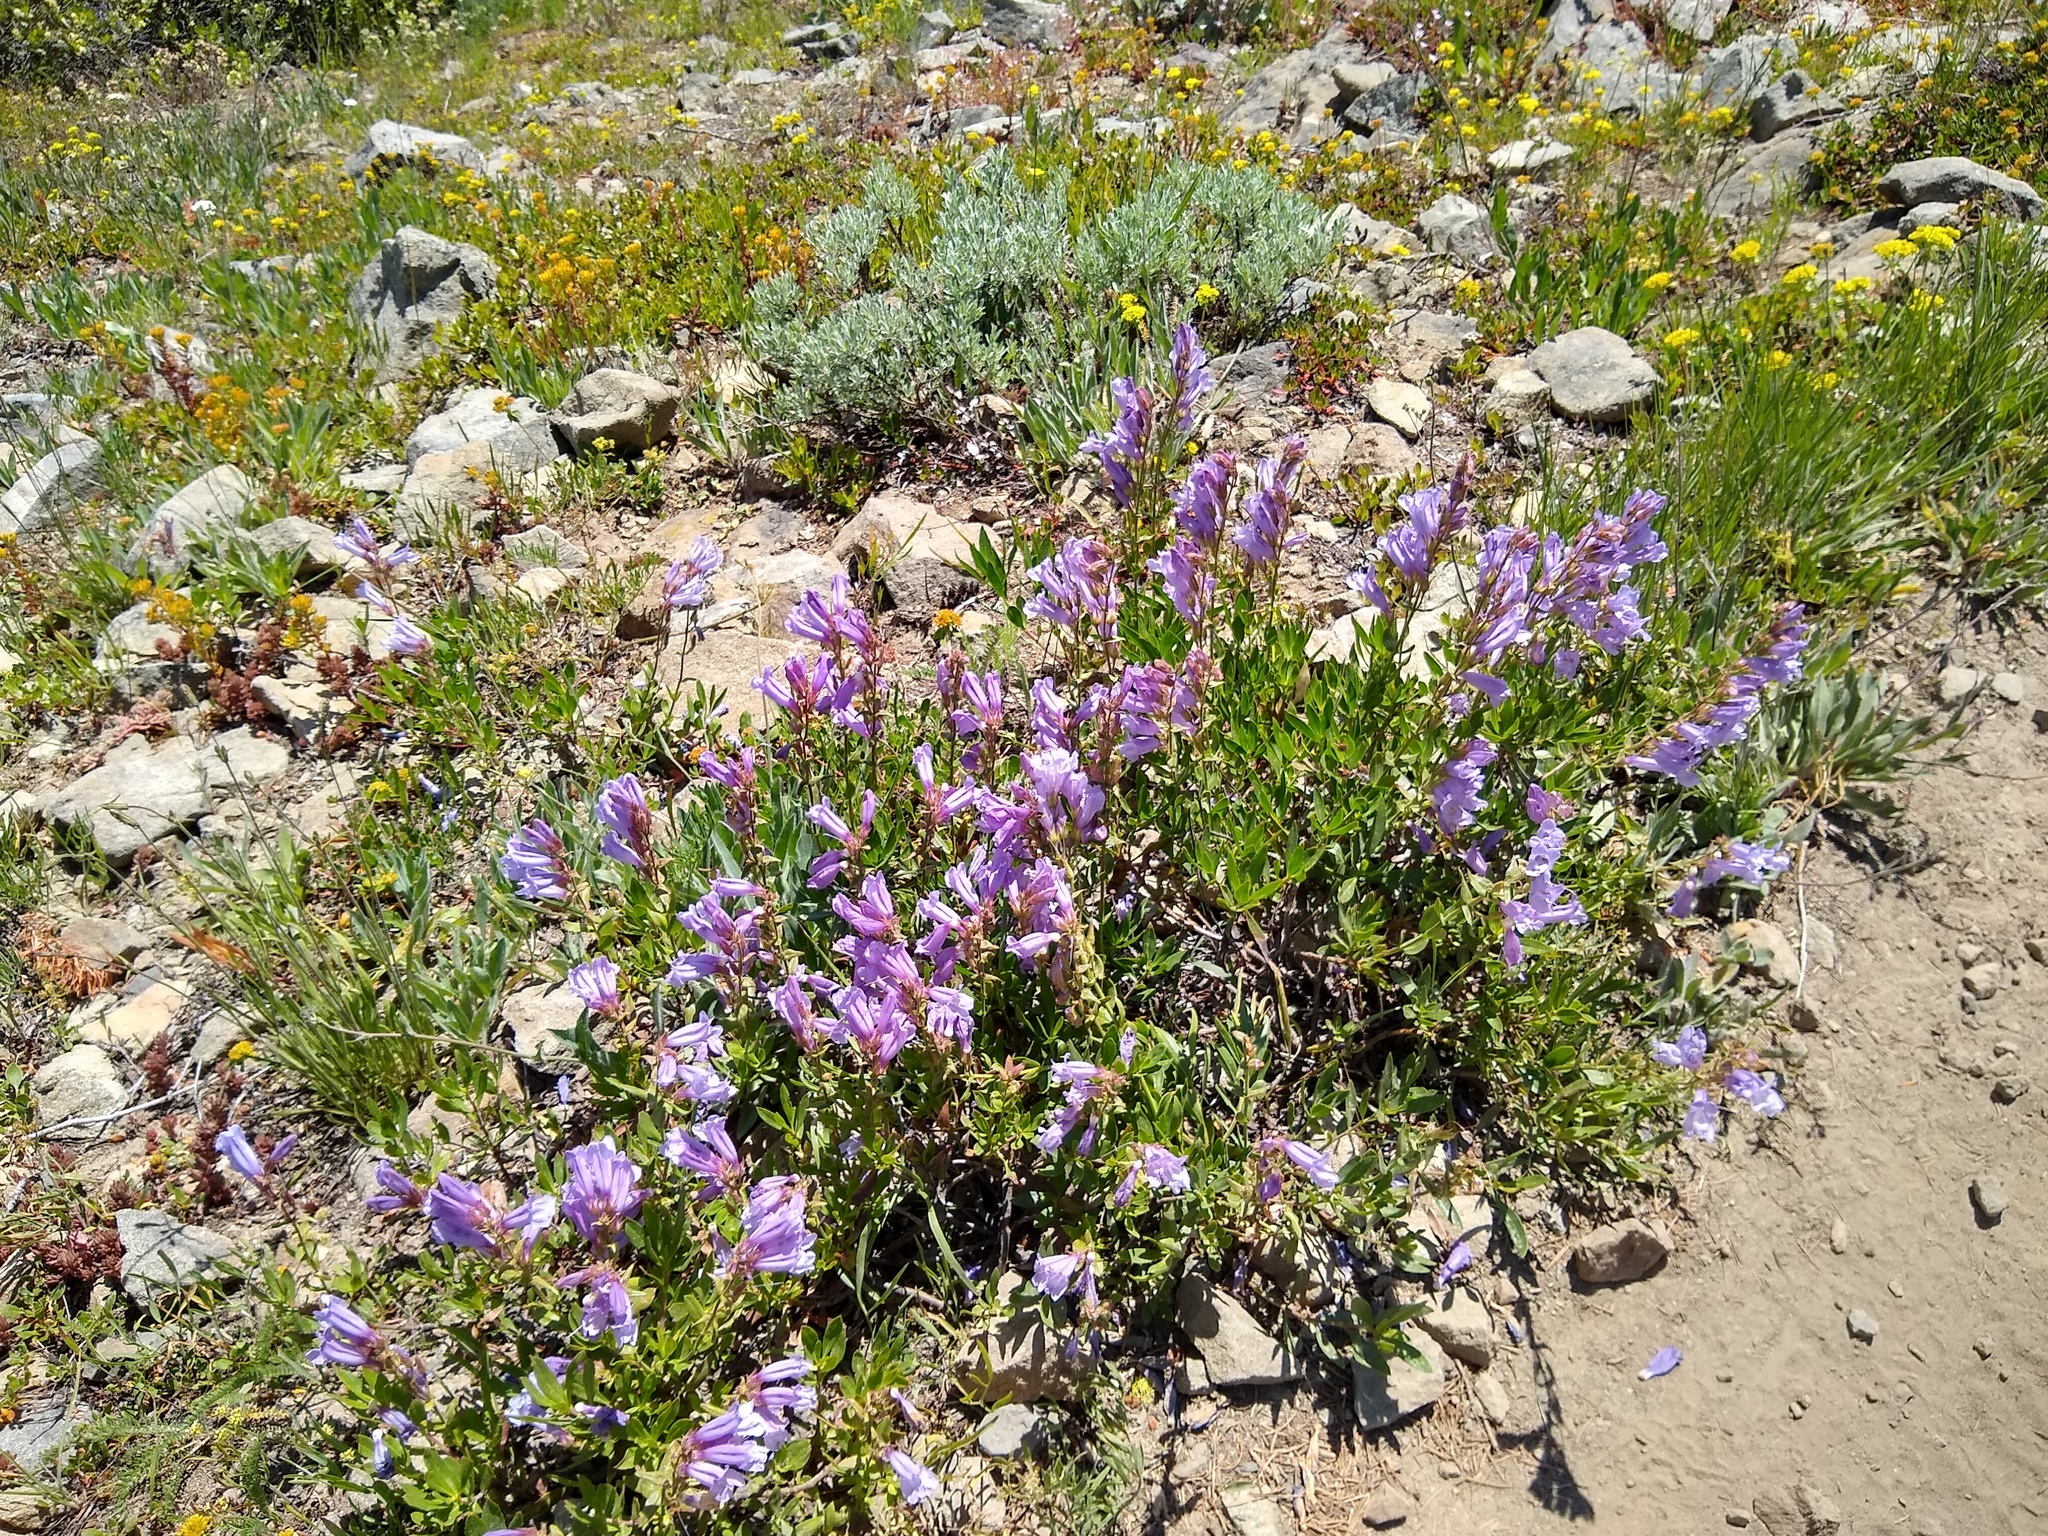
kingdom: Plantae
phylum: Tracheophyta
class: Magnoliopsida
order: Lamiales
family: Plantaginaceae
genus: Penstemon
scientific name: Penstemon fruticosus
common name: Bush penstemon
